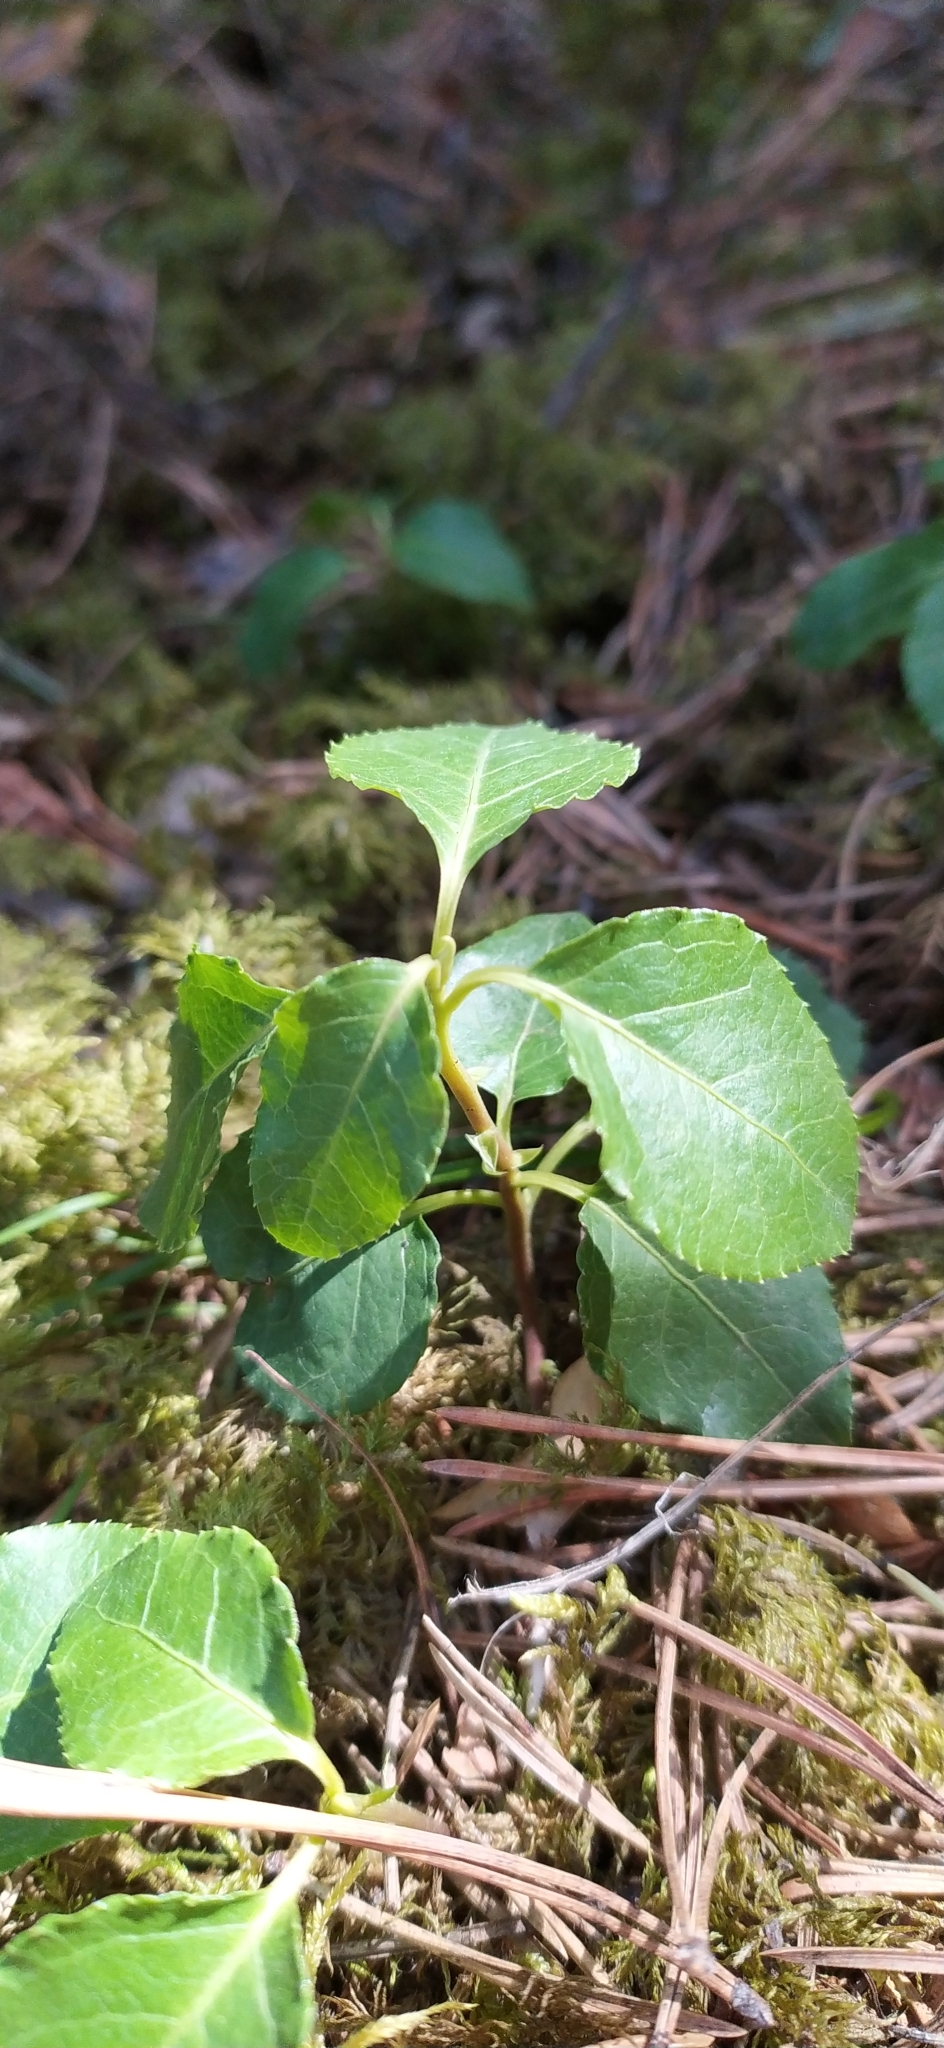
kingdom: Plantae
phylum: Tracheophyta
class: Magnoliopsida
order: Ericales
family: Ericaceae
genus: Orthilia
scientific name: Orthilia secunda
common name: One-sided orthilia
